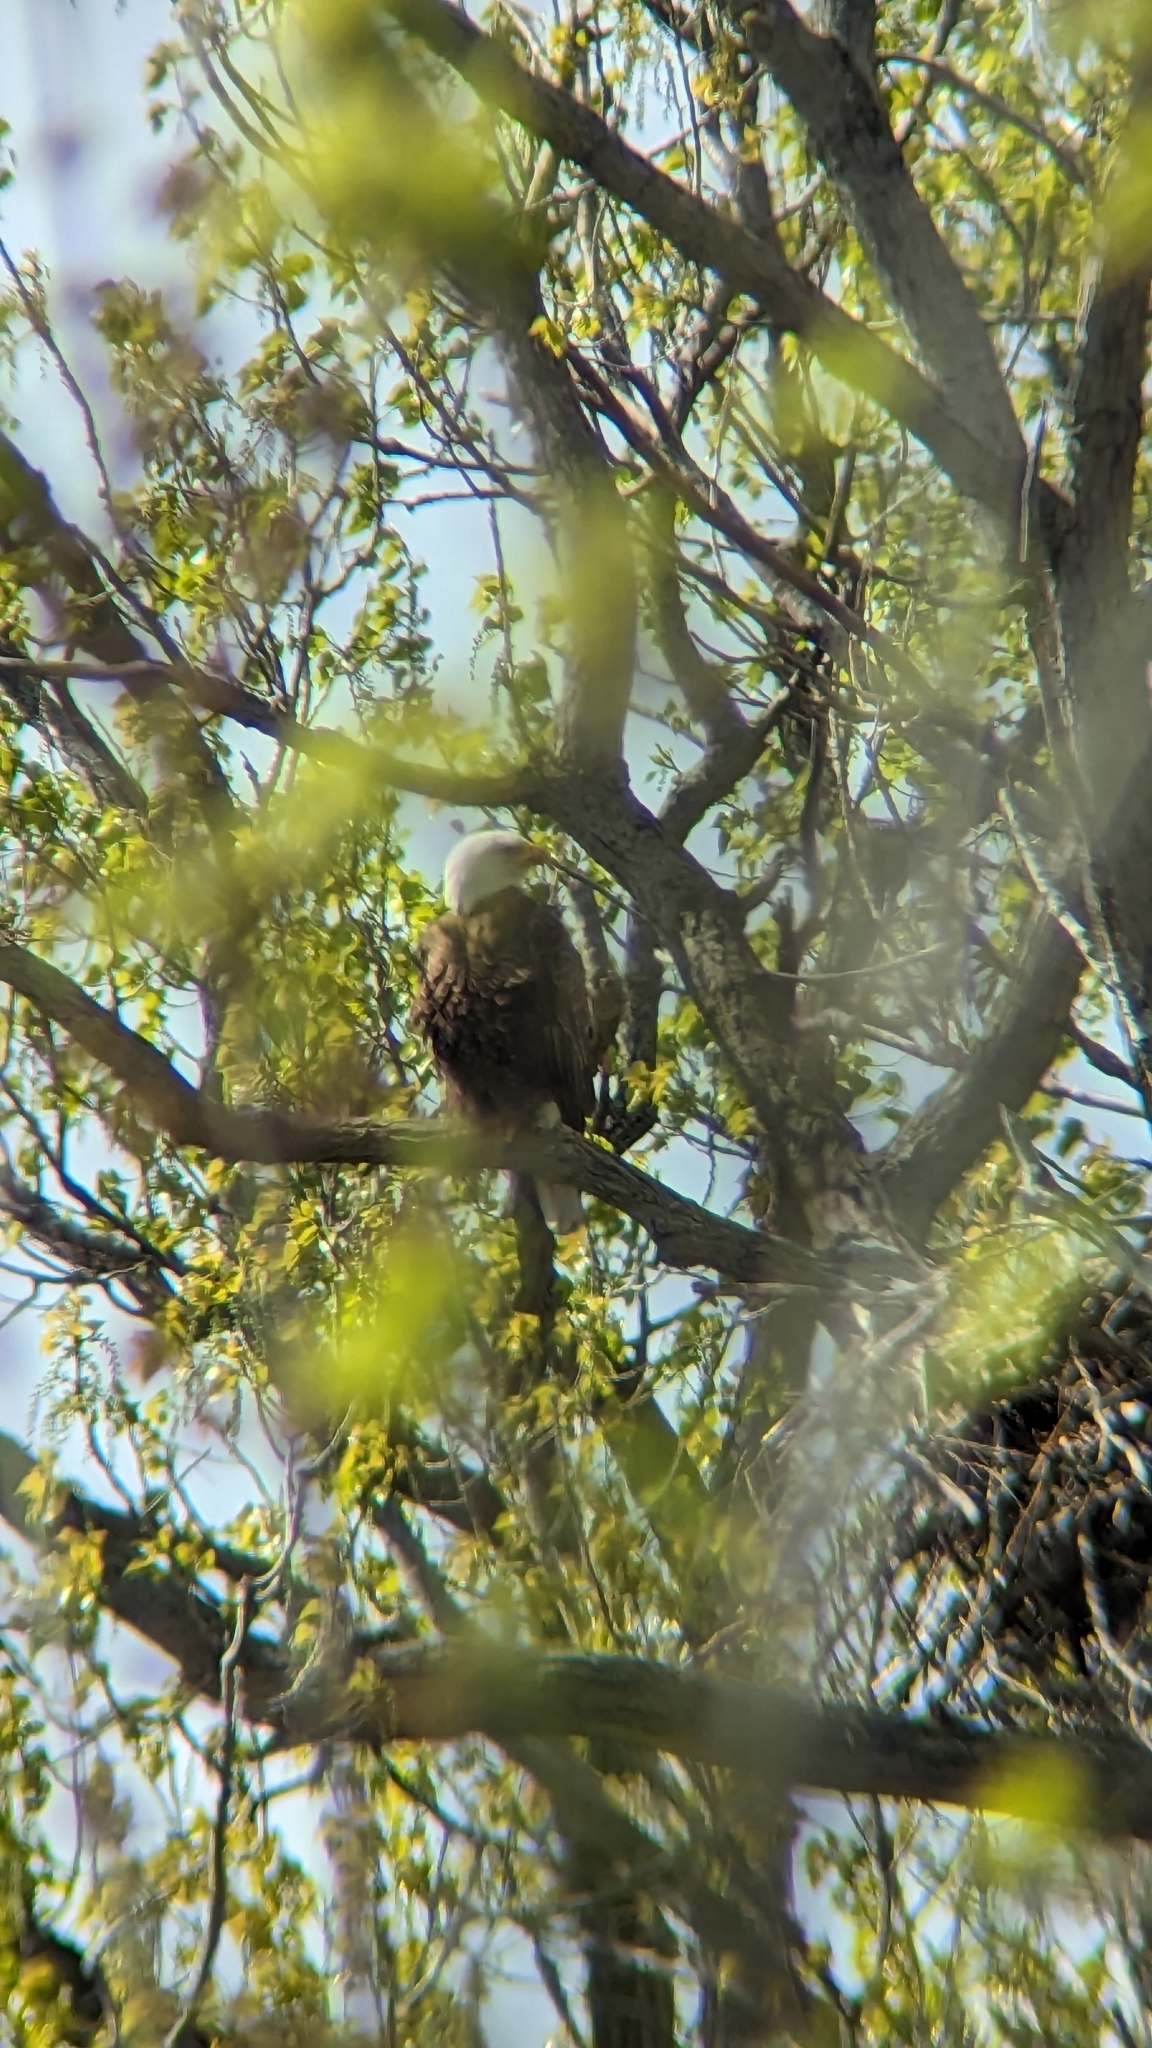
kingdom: Animalia
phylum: Chordata
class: Aves
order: Accipitriformes
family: Accipitridae
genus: Haliaeetus
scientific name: Haliaeetus leucocephalus
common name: Bald eagle
